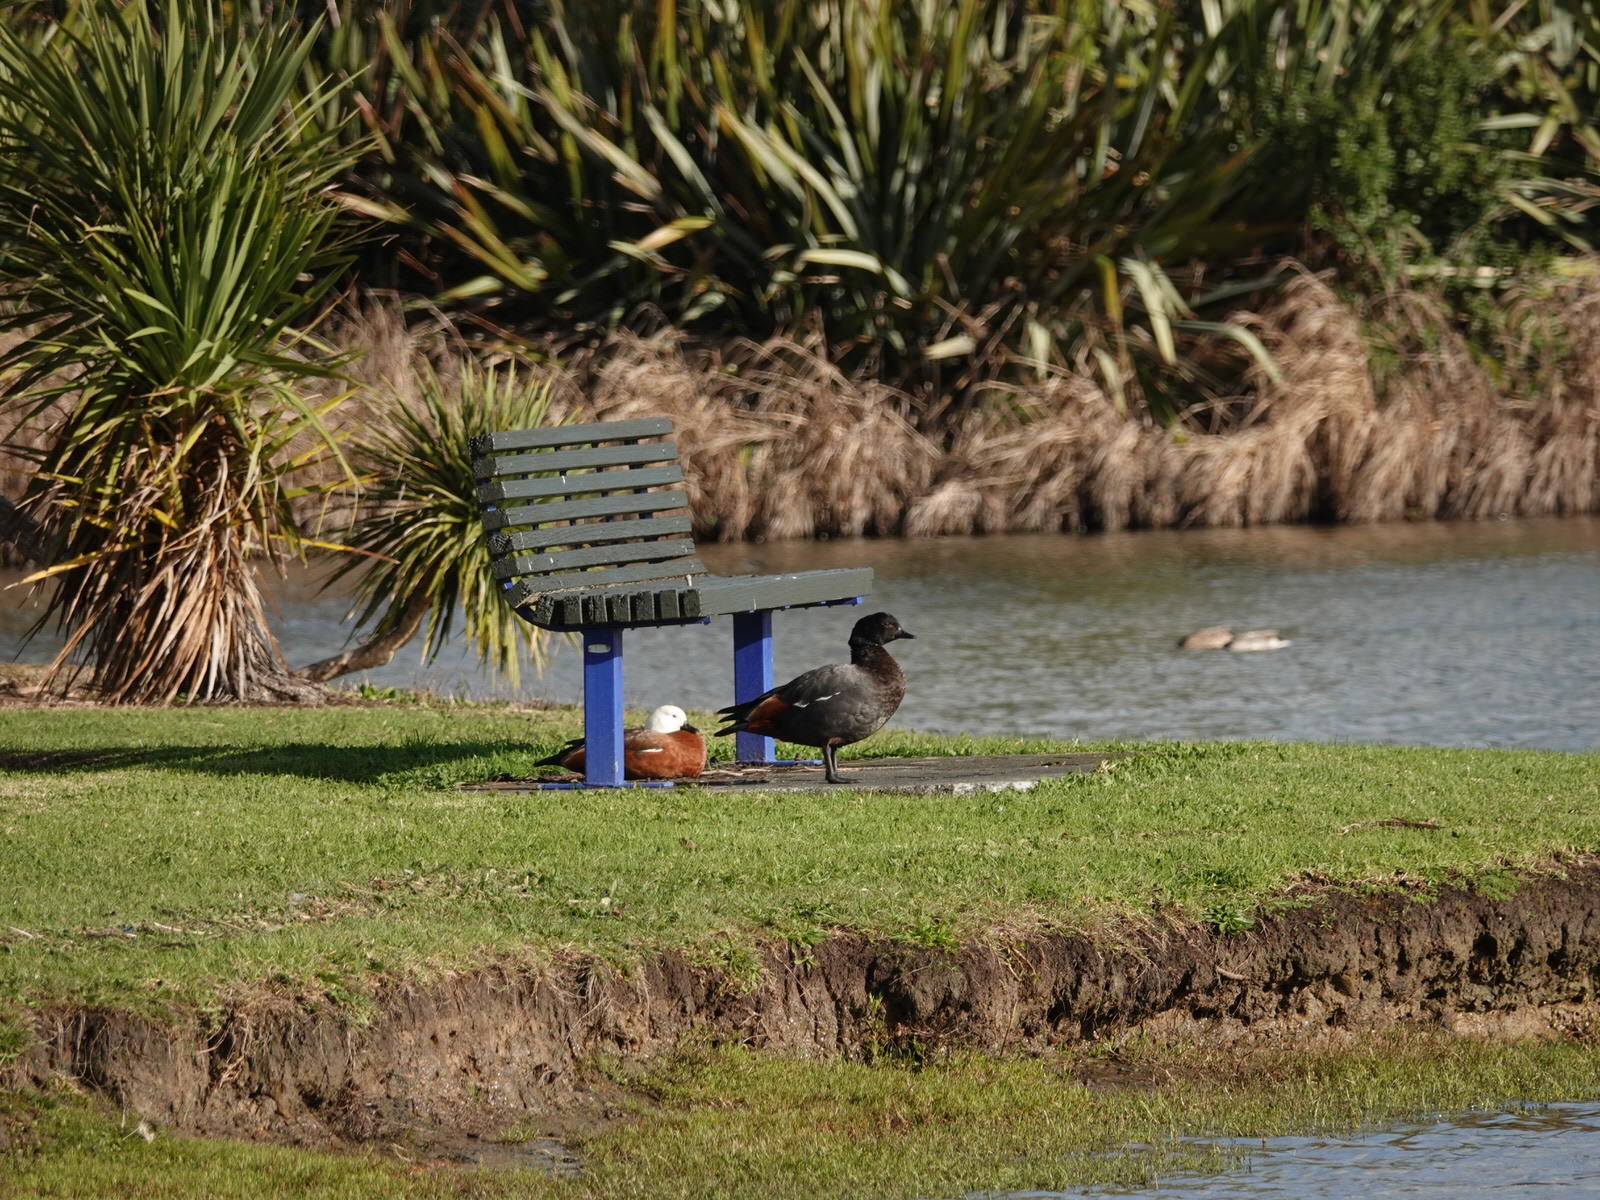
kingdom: Animalia
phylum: Chordata
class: Aves
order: Anseriformes
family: Anatidae
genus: Tadorna
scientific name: Tadorna variegata
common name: Paradise shelduck
